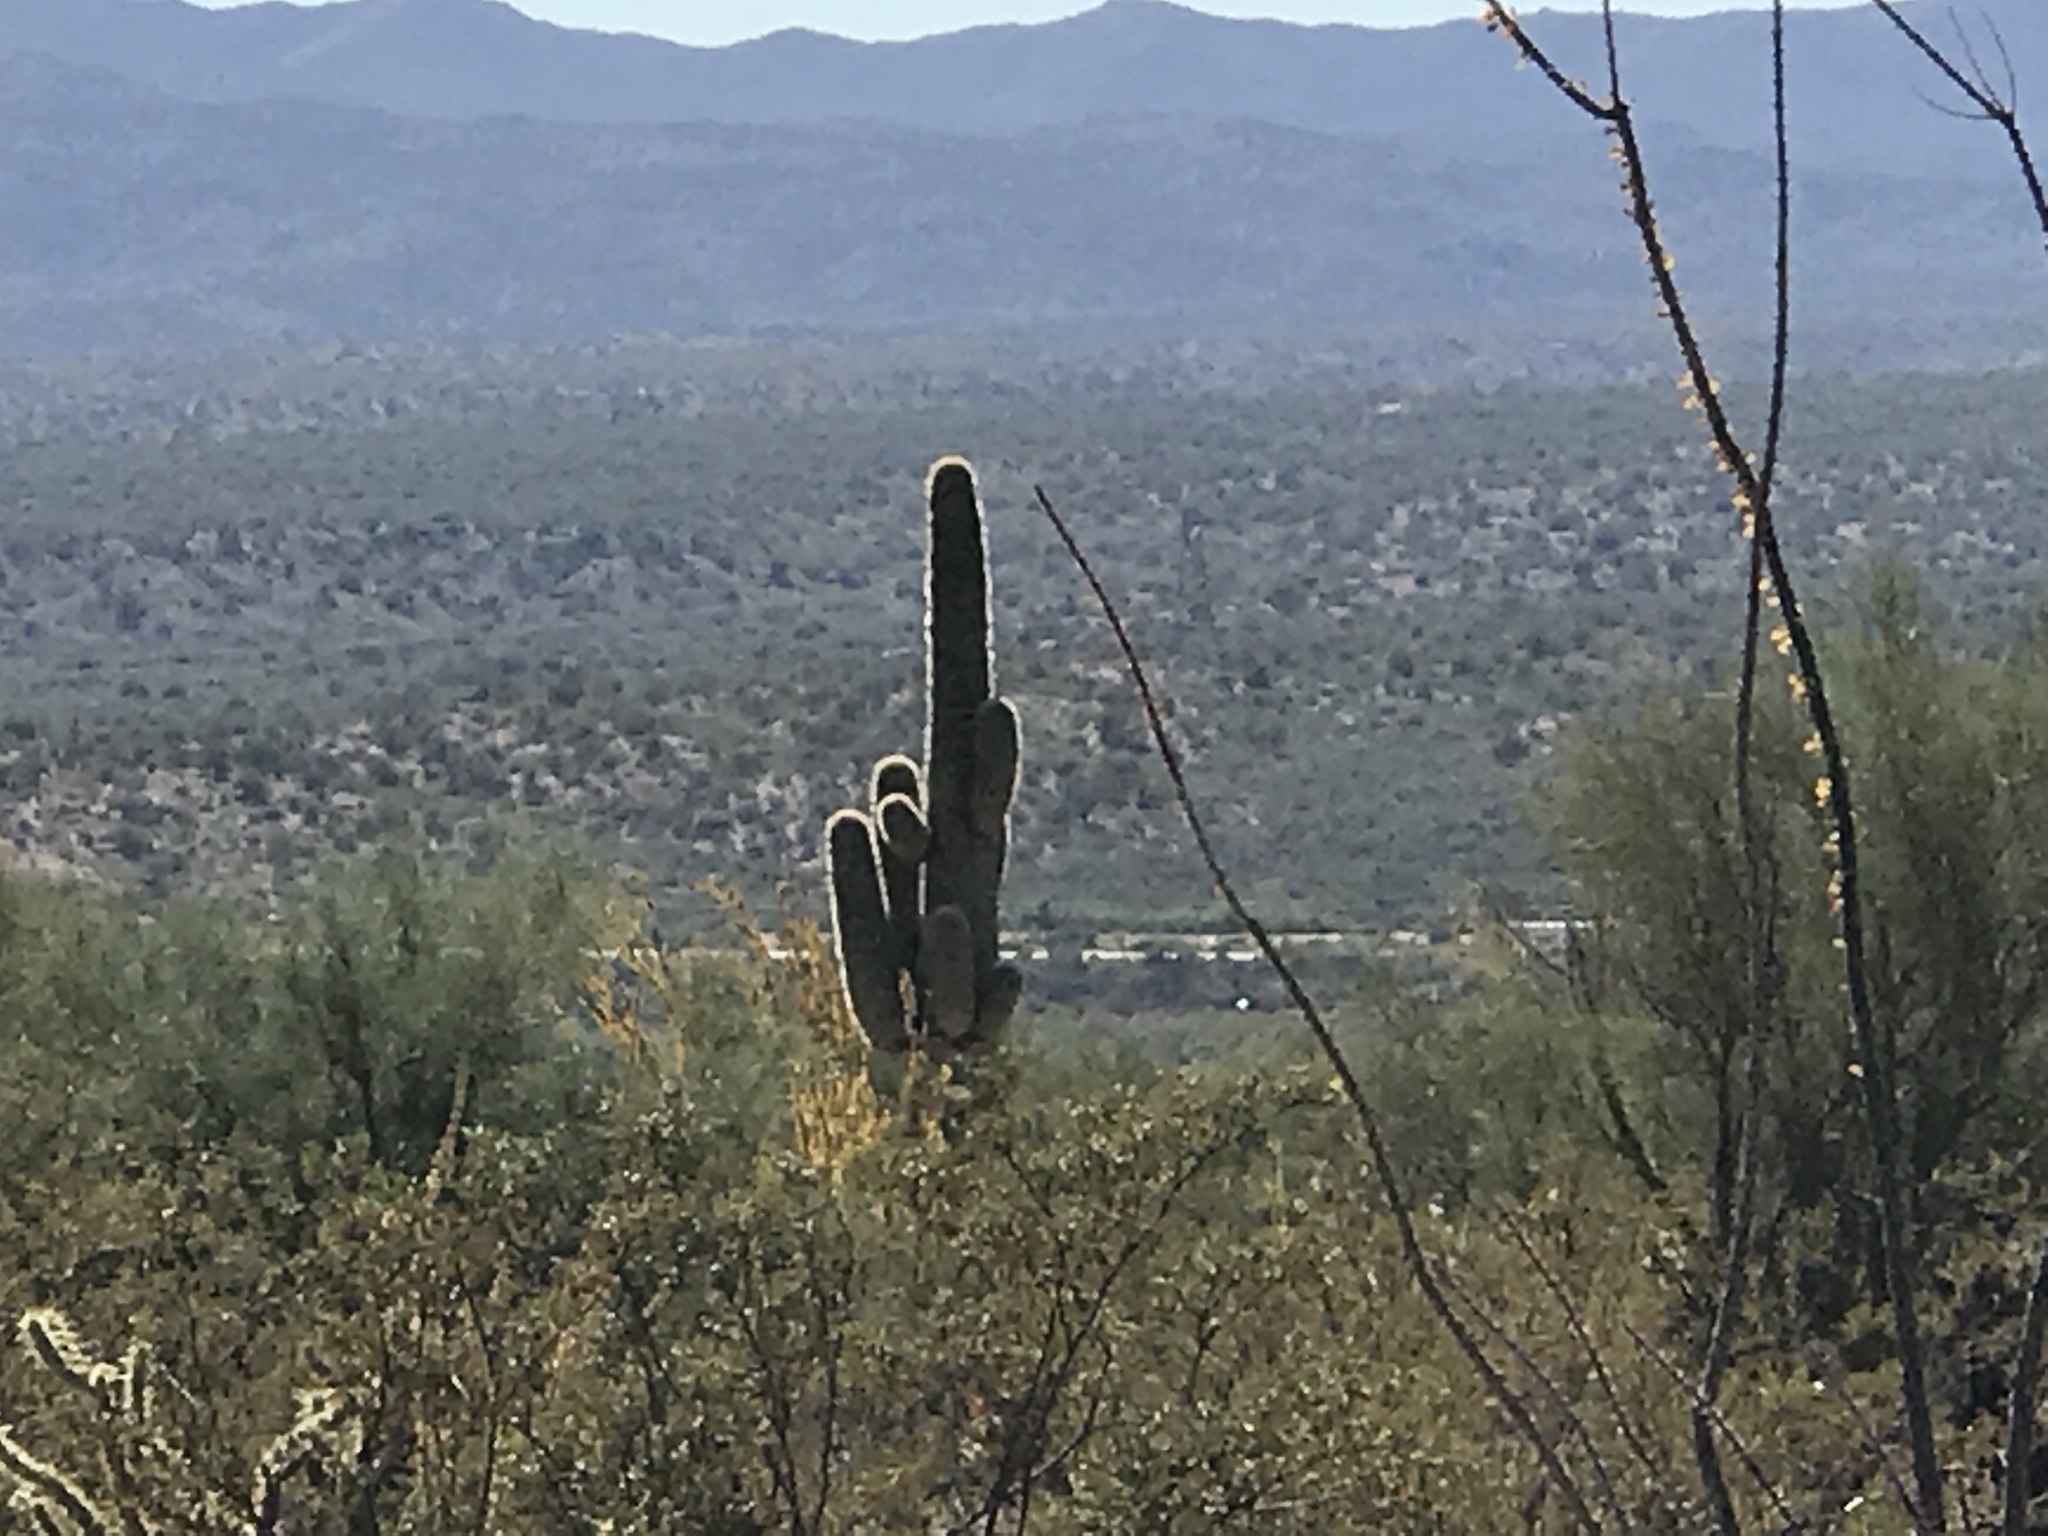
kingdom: Plantae
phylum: Tracheophyta
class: Magnoliopsida
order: Caryophyllales
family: Cactaceae
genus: Carnegiea
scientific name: Carnegiea gigantea
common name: Saguaro
